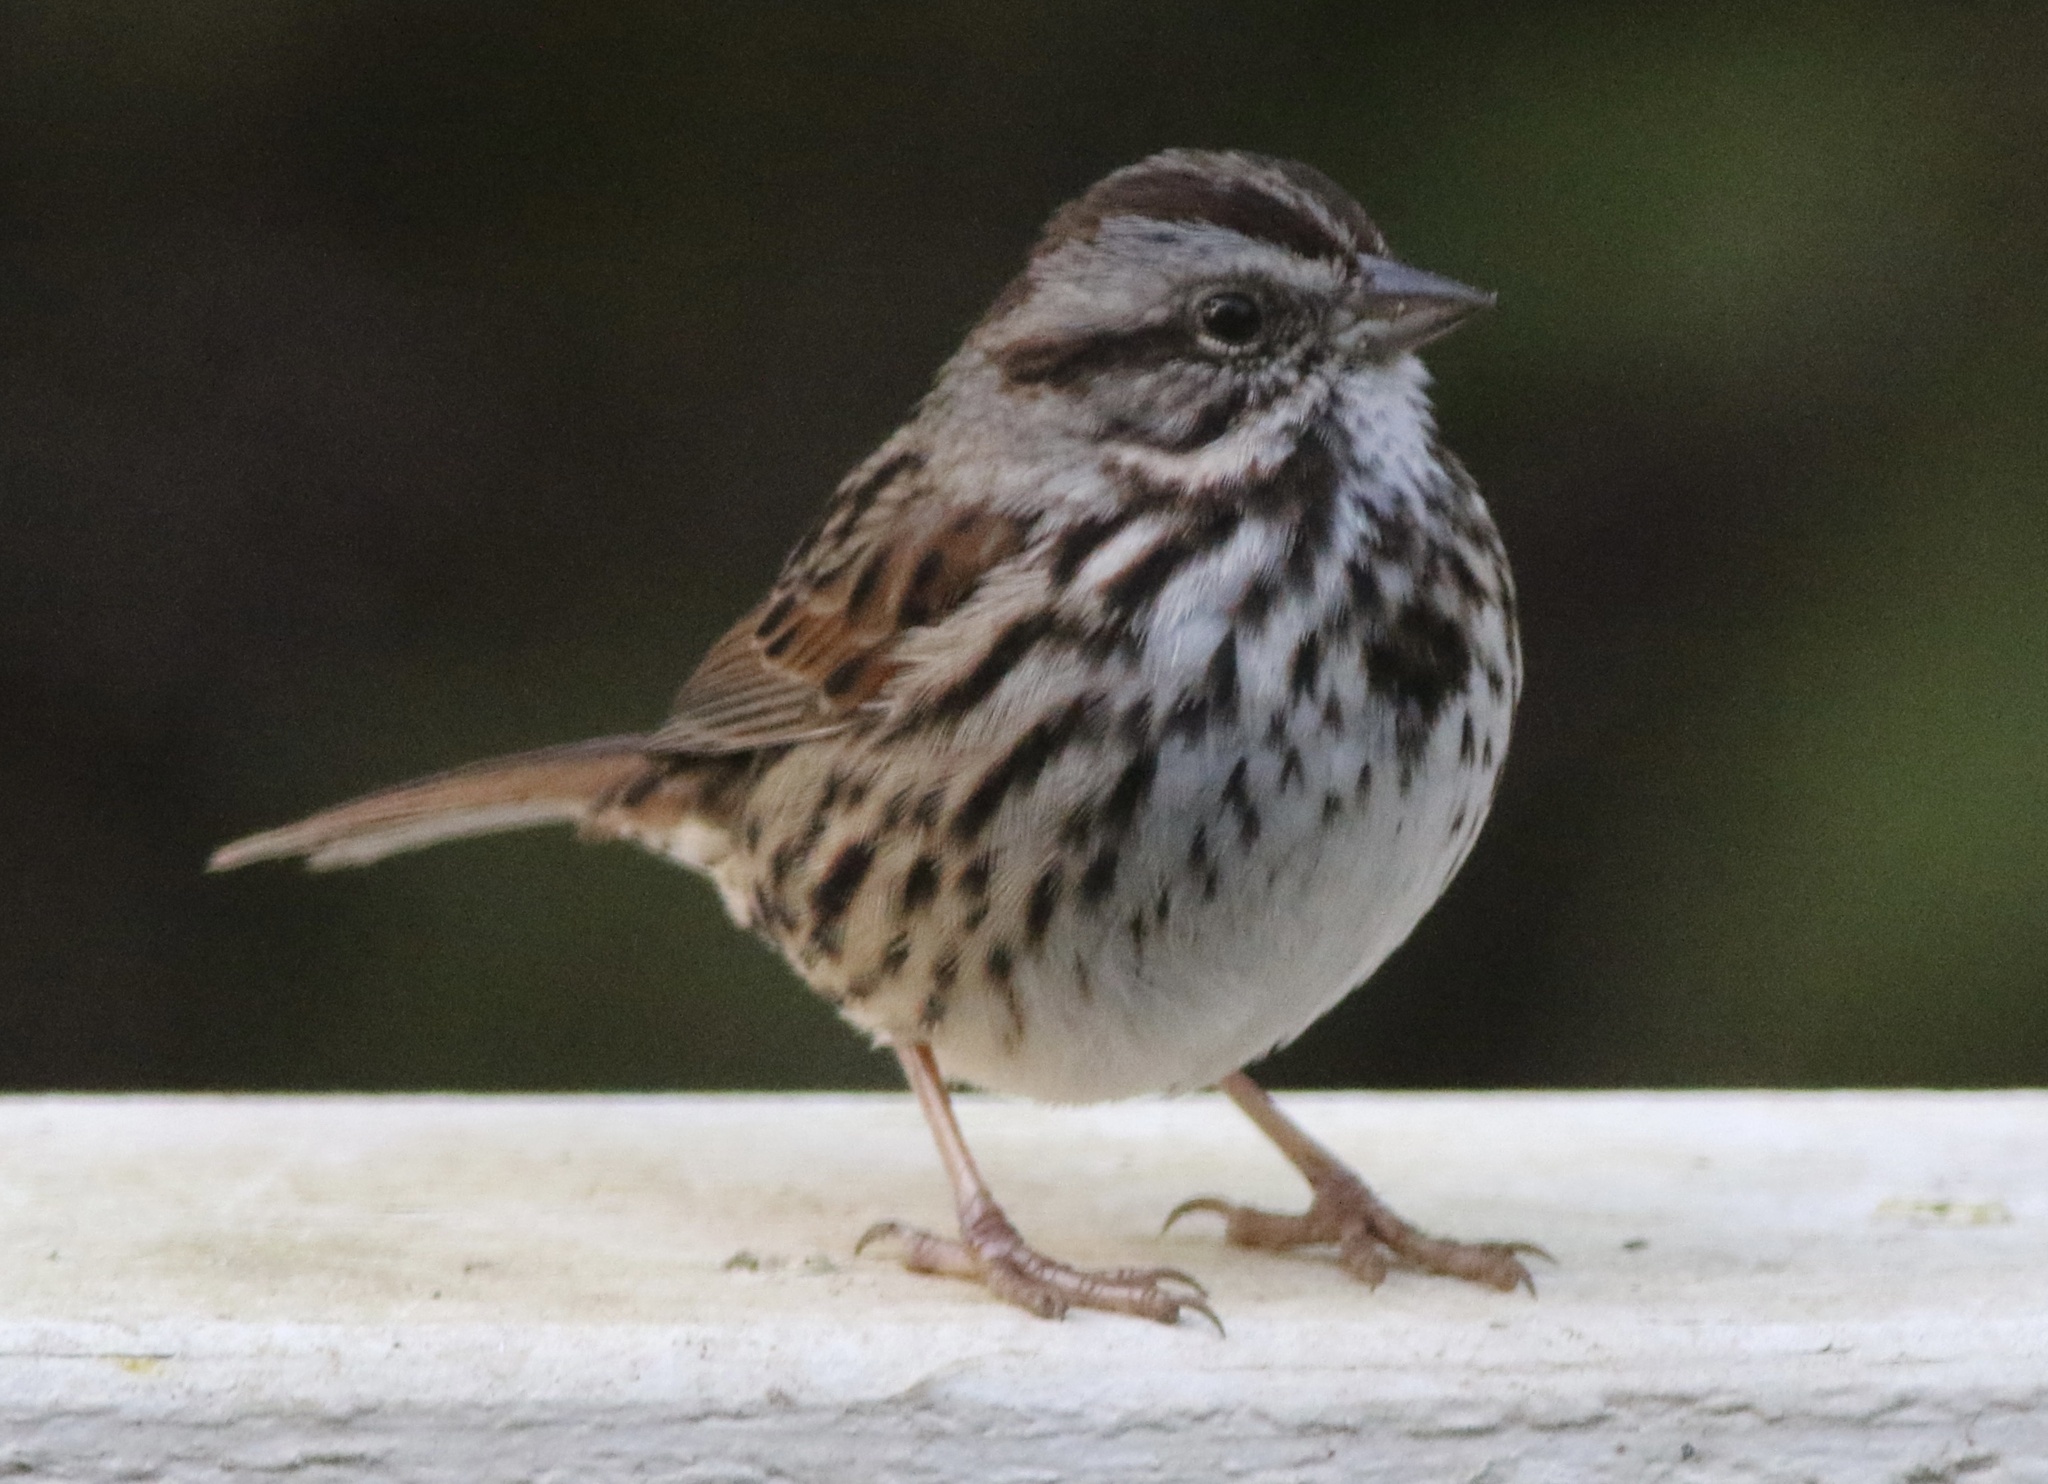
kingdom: Animalia
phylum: Chordata
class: Aves
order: Passeriformes
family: Passerellidae
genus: Melospiza
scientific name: Melospiza melodia
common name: Song sparrow
